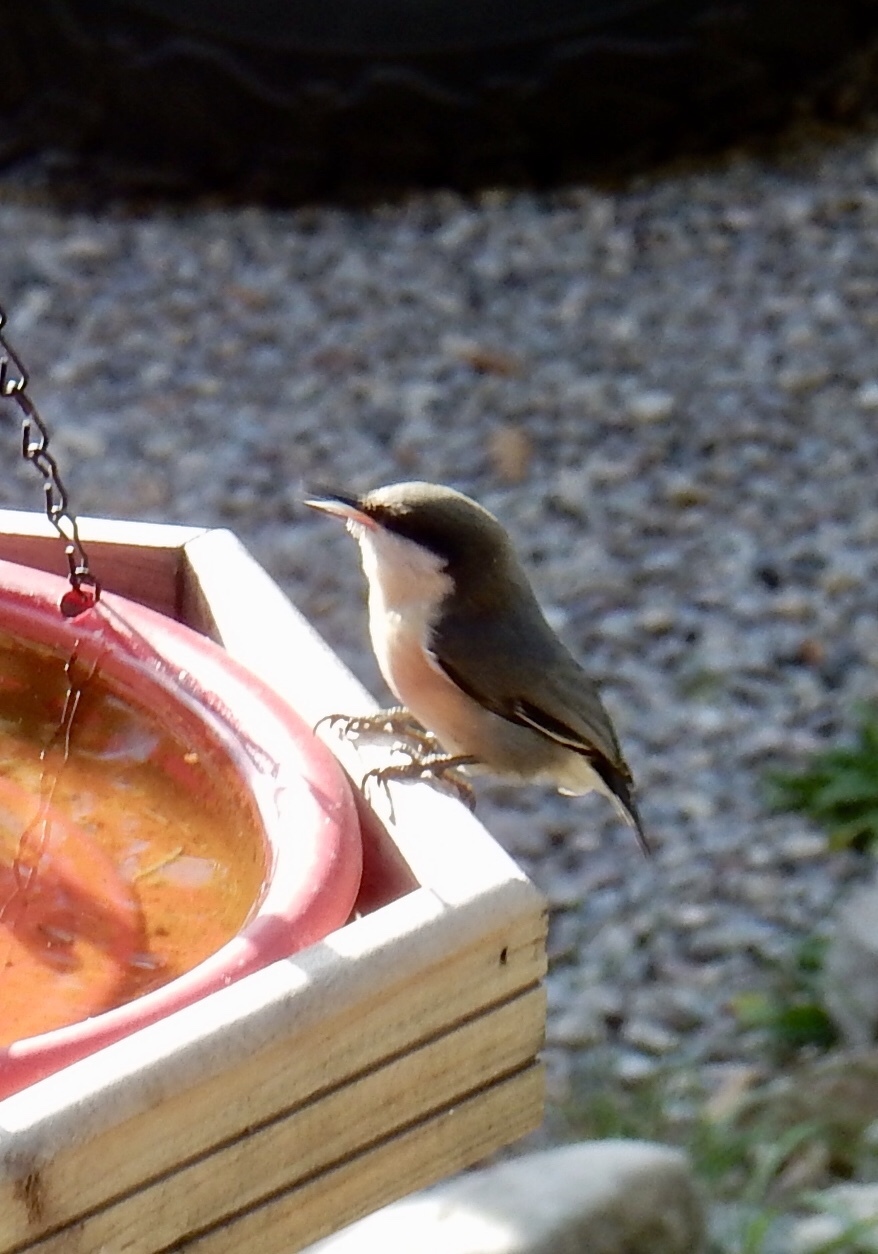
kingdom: Animalia
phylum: Chordata
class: Aves
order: Passeriformes
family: Sittidae
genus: Sitta
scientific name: Sitta pygmaea
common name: Pygmy nuthatch
